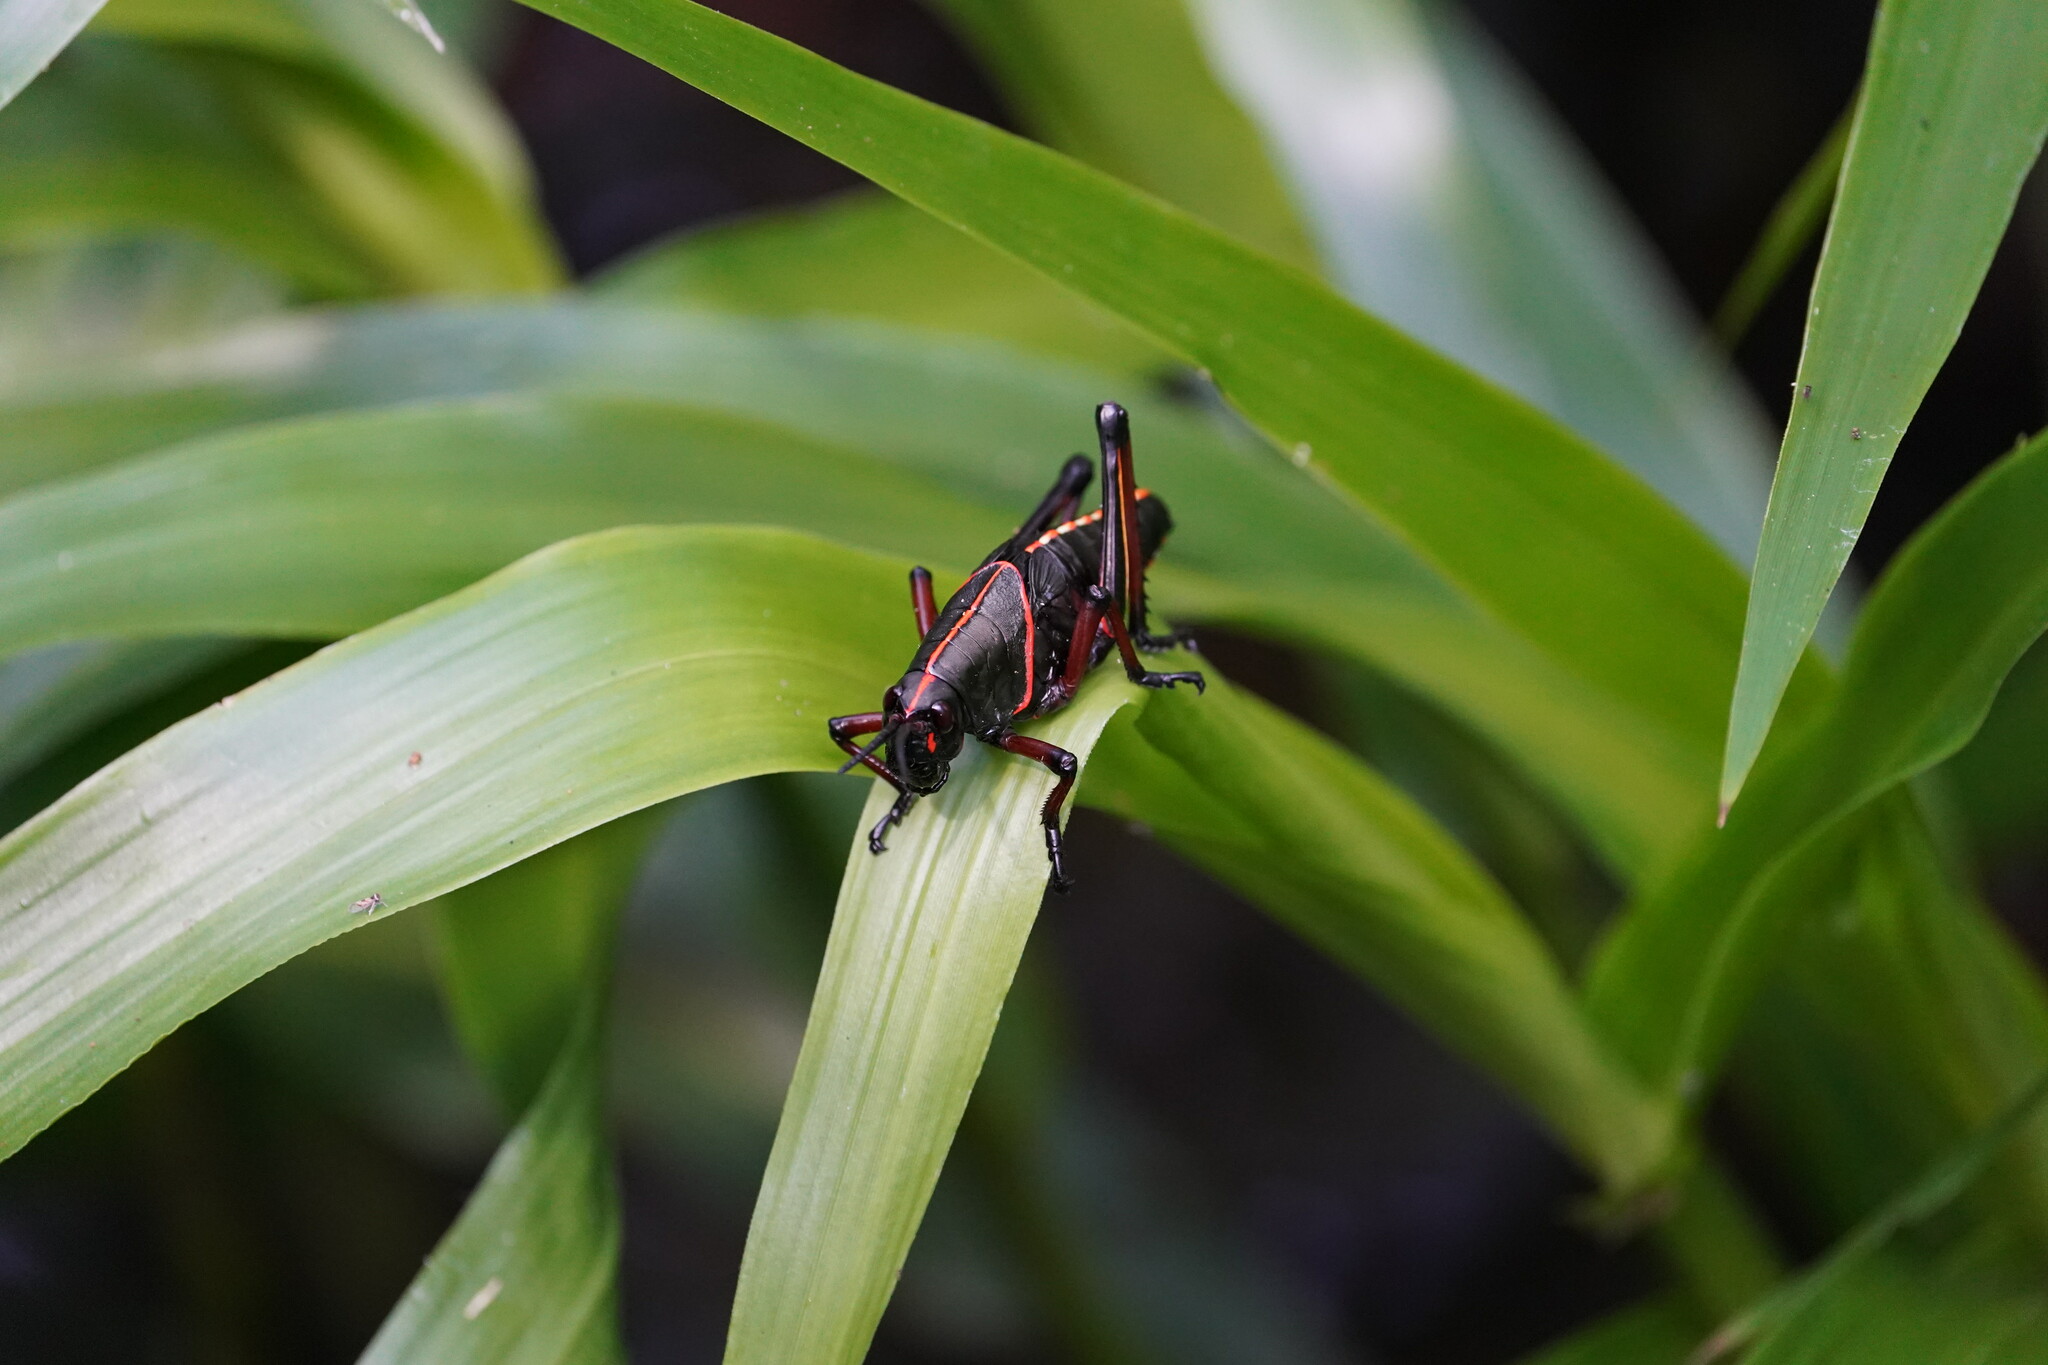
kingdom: Animalia
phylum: Arthropoda
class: Insecta
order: Orthoptera
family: Romaleidae
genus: Romalea
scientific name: Romalea microptera
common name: Eastern lubber grasshopper
